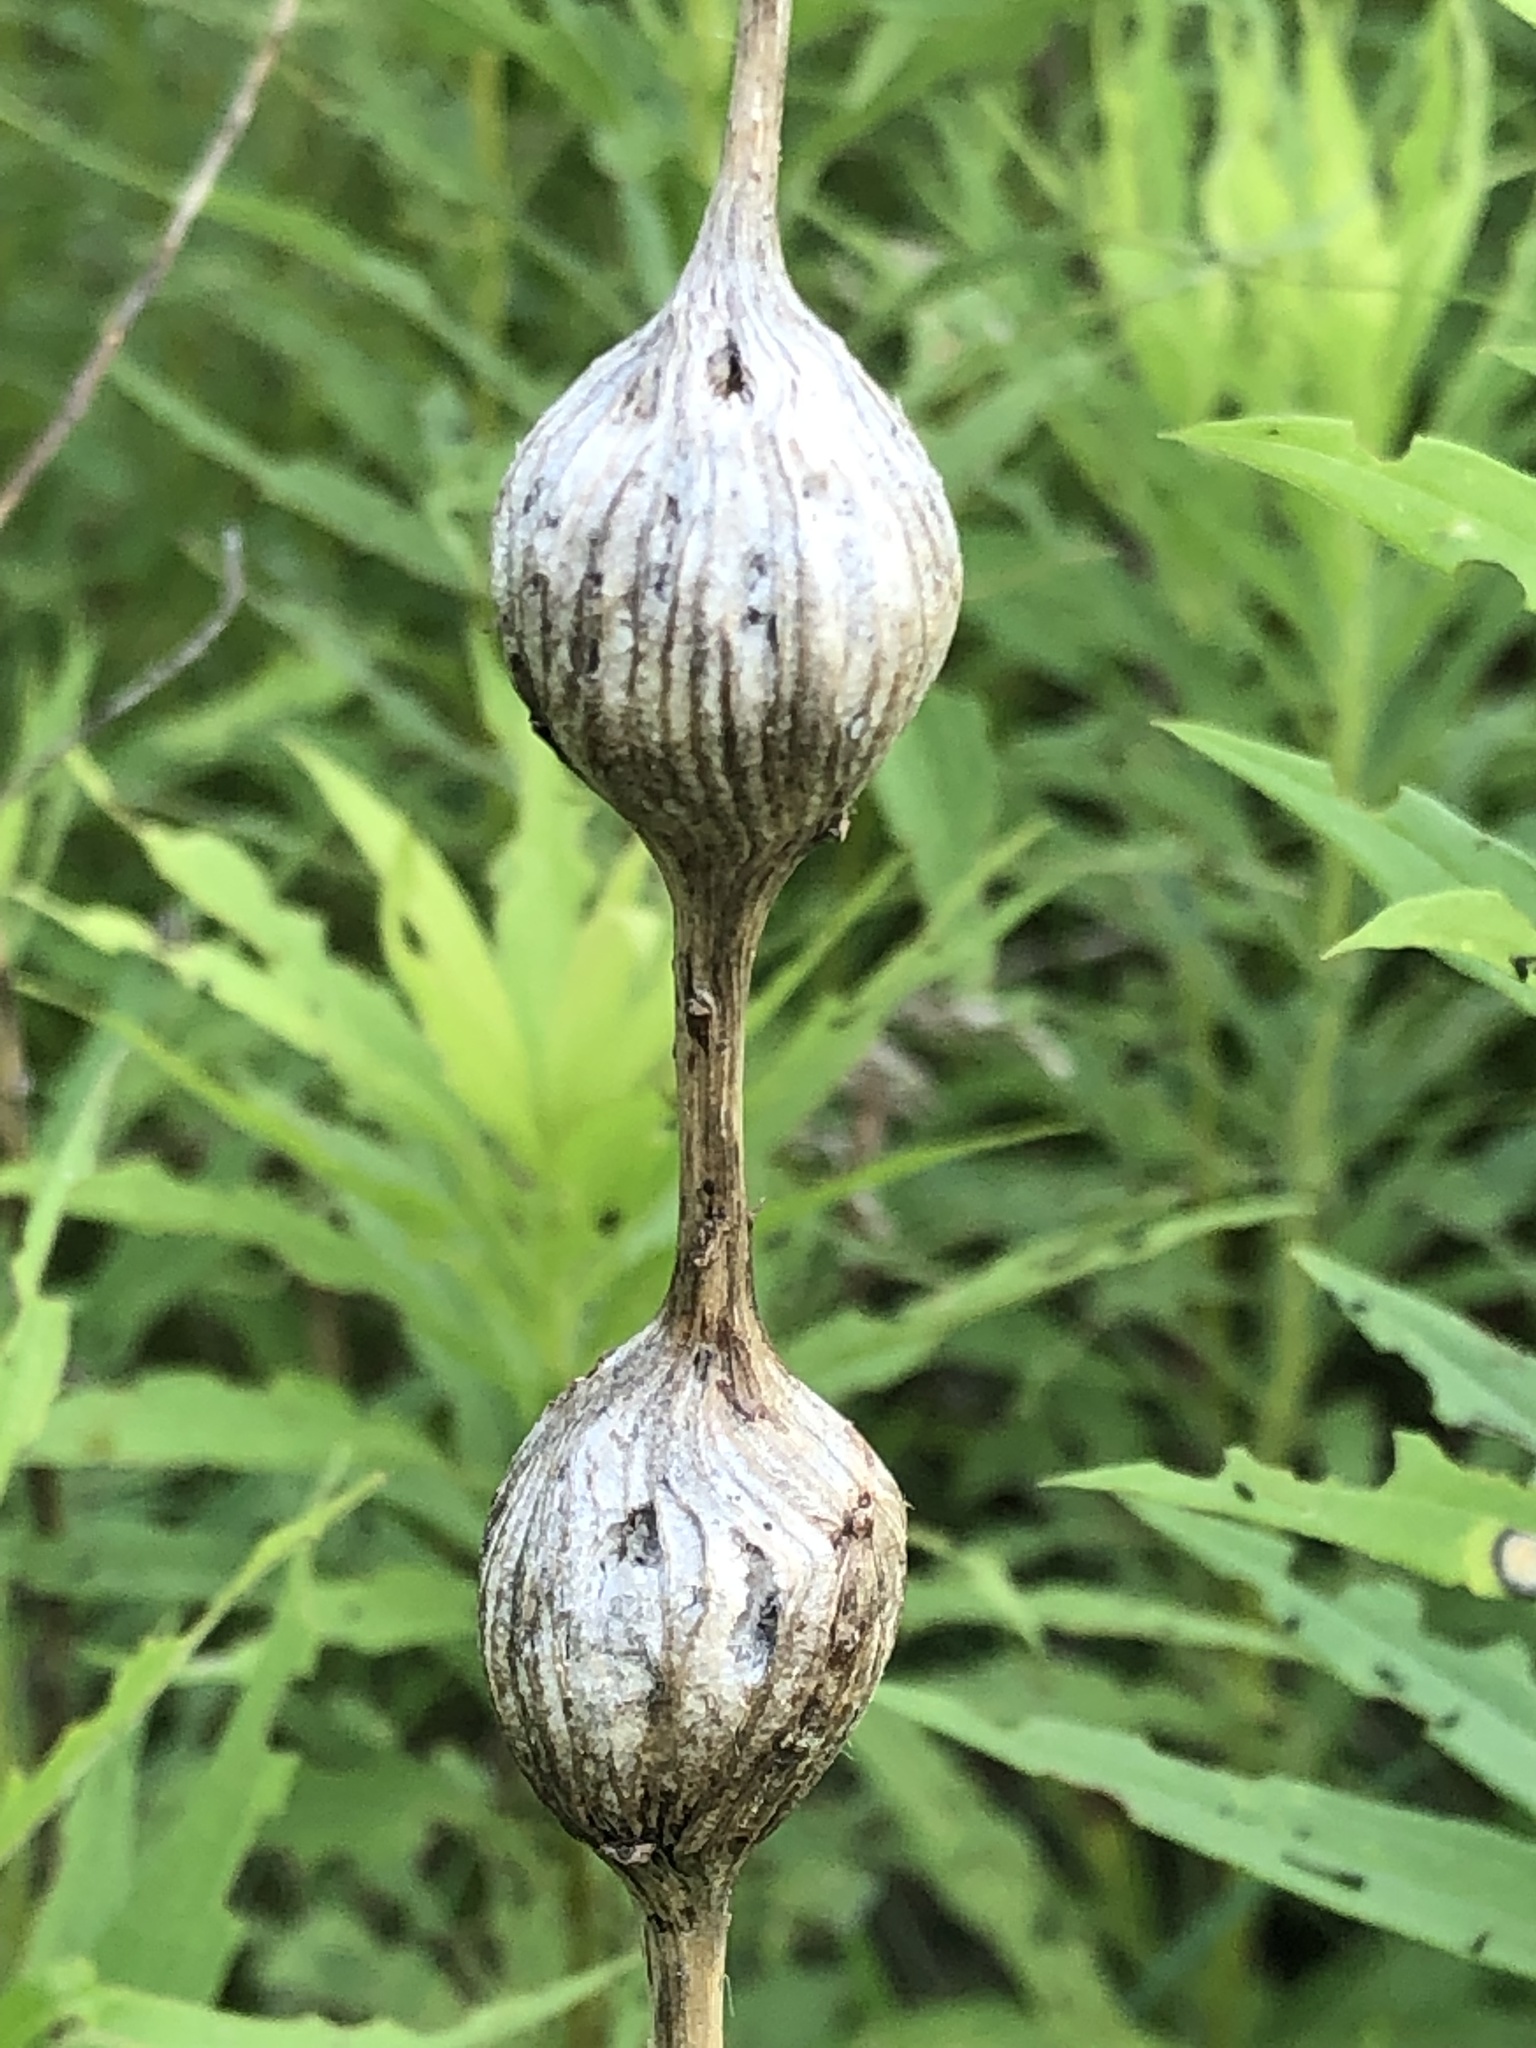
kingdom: Animalia
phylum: Arthropoda
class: Insecta
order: Diptera
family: Tephritidae
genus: Eurosta
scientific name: Eurosta solidaginis
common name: Goldenrod gall fly
